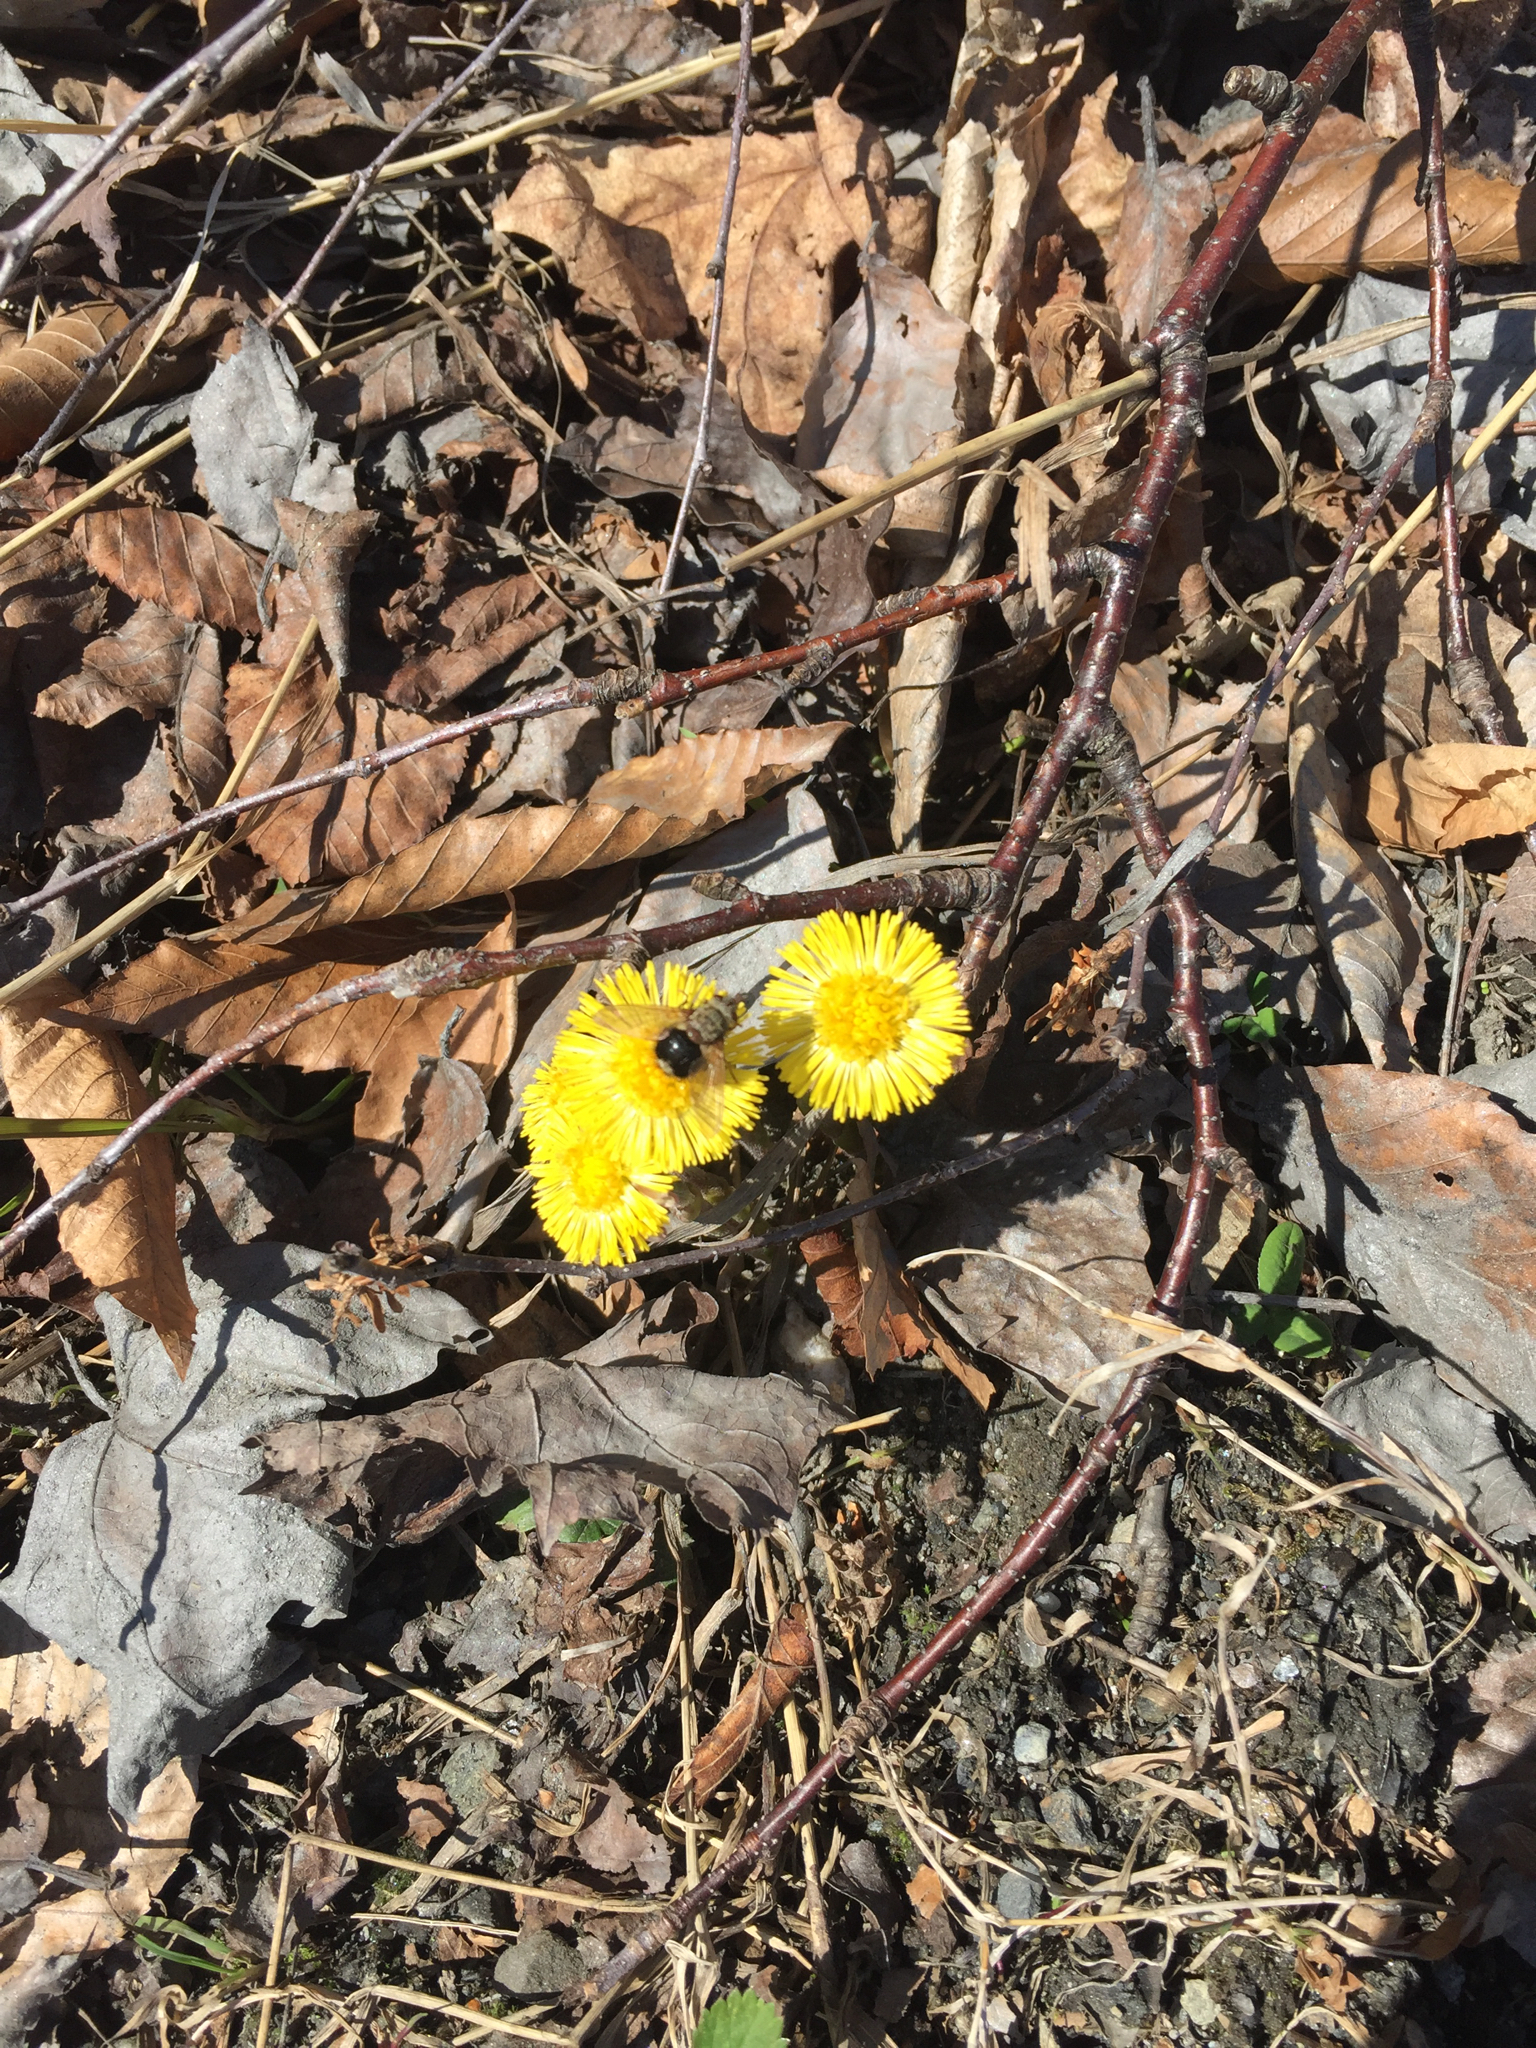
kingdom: Plantae
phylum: Tracheophyta
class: Magnoliopsida
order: Asterales
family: Asteraceae
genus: Tussilago
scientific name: Tussilago farfara
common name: Coltsfoot
